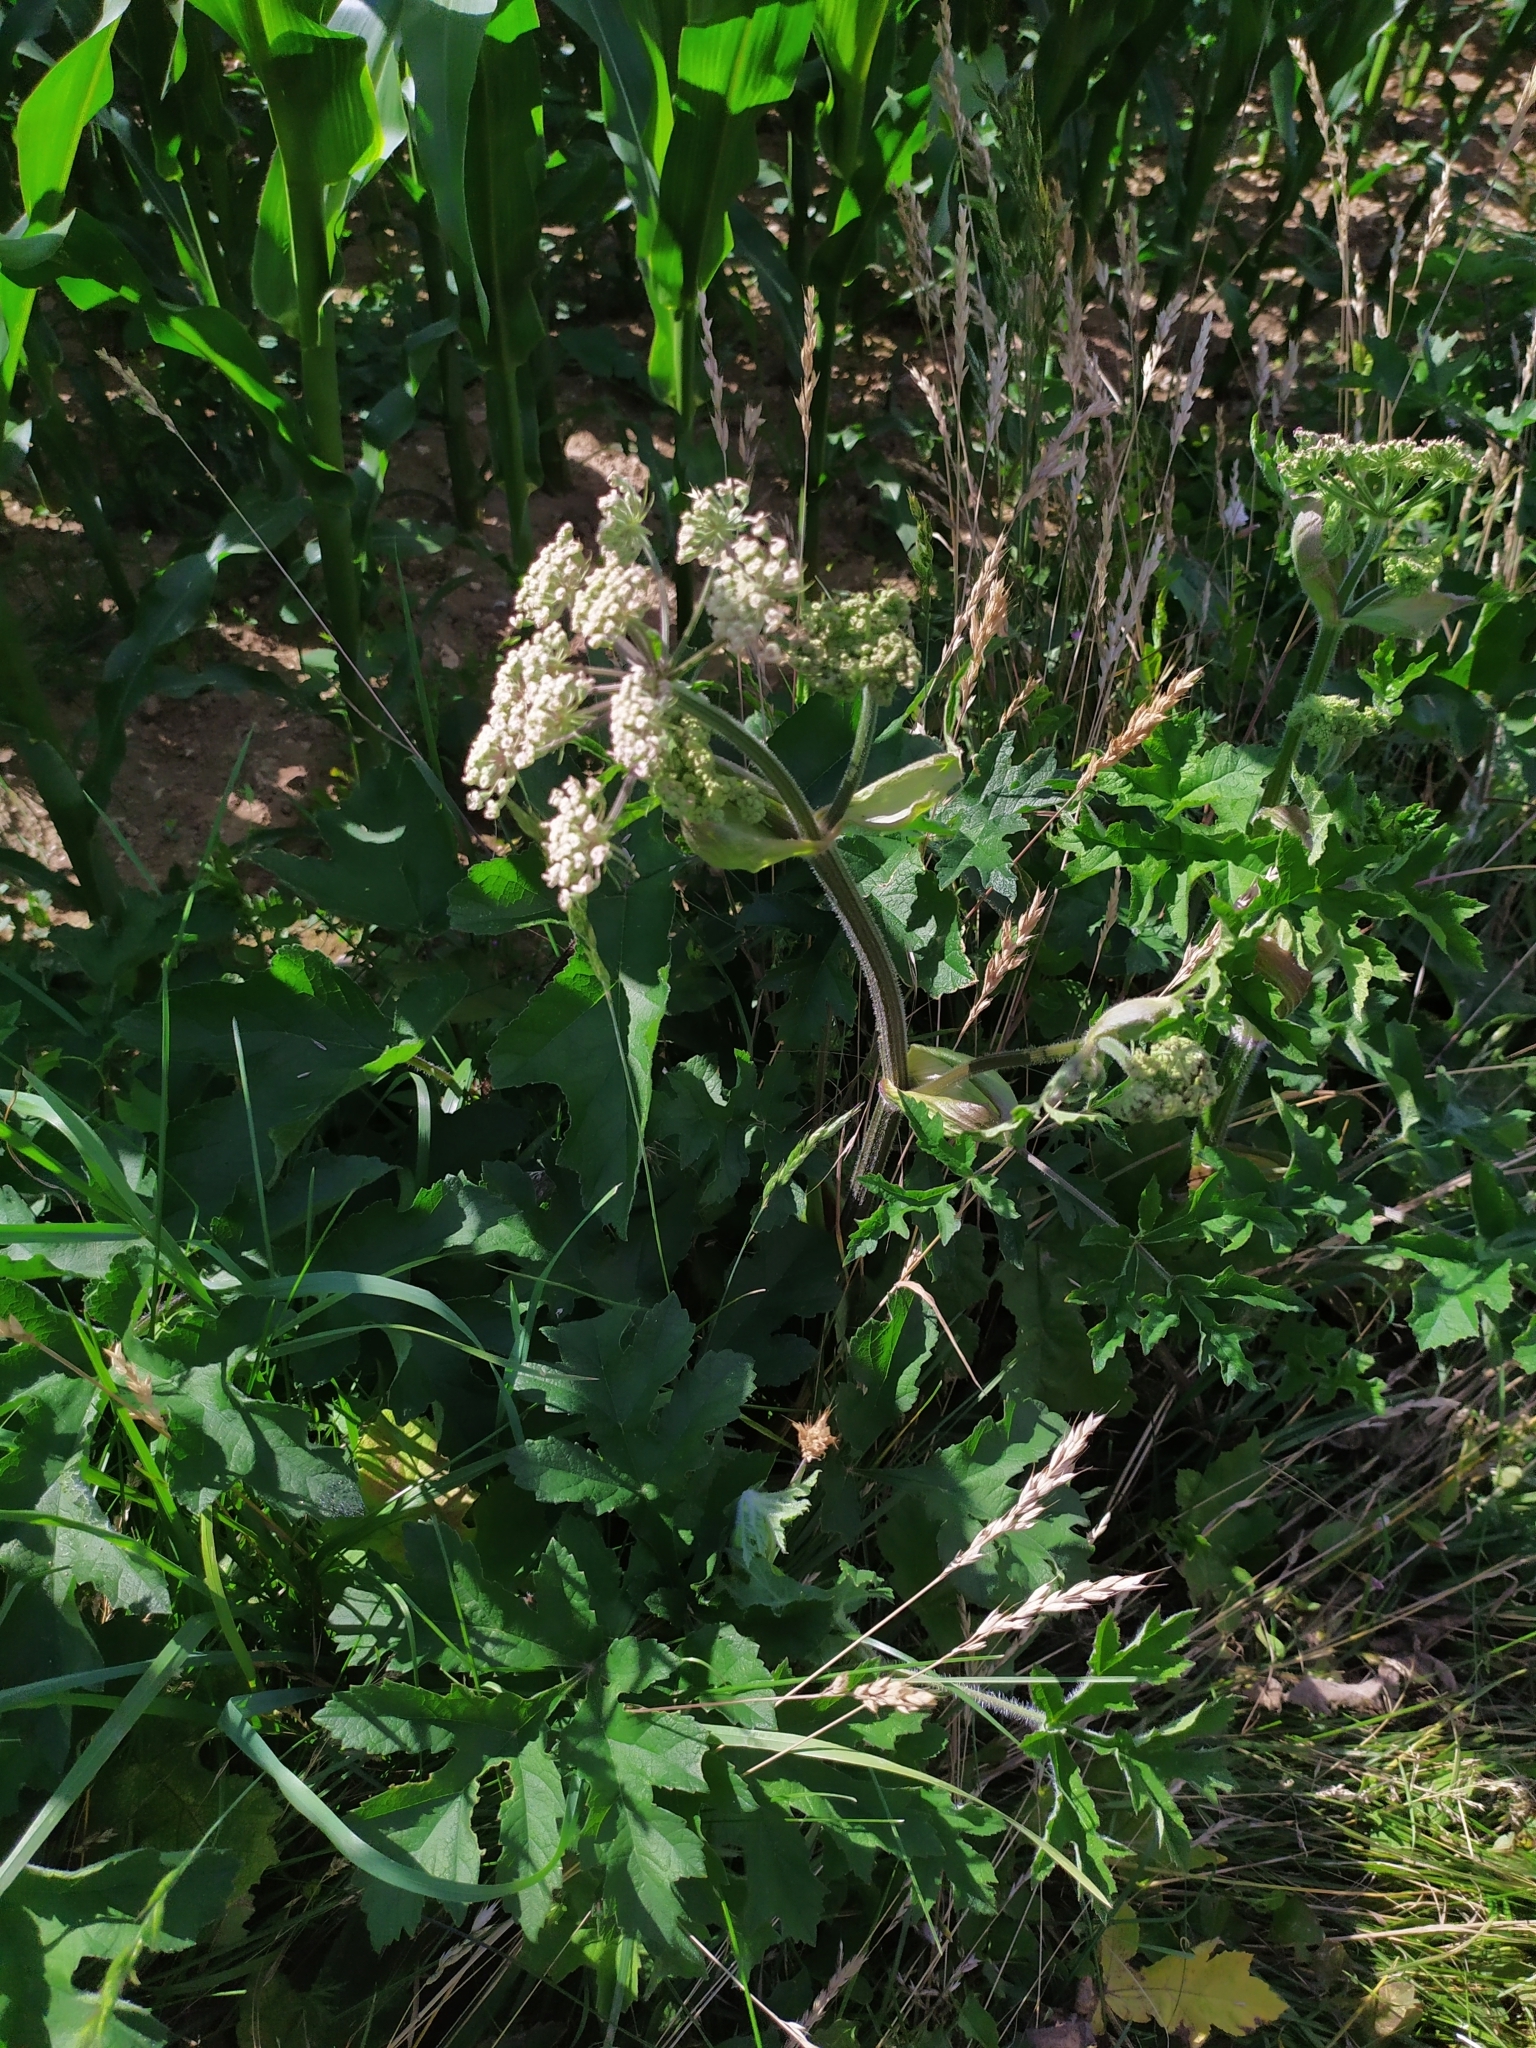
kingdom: Plantae
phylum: Tracheophyta
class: Magnoliopsida
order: Apiales
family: Apiaceae
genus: Heracleum
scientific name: Heracleum sphondylium
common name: Hogweed
